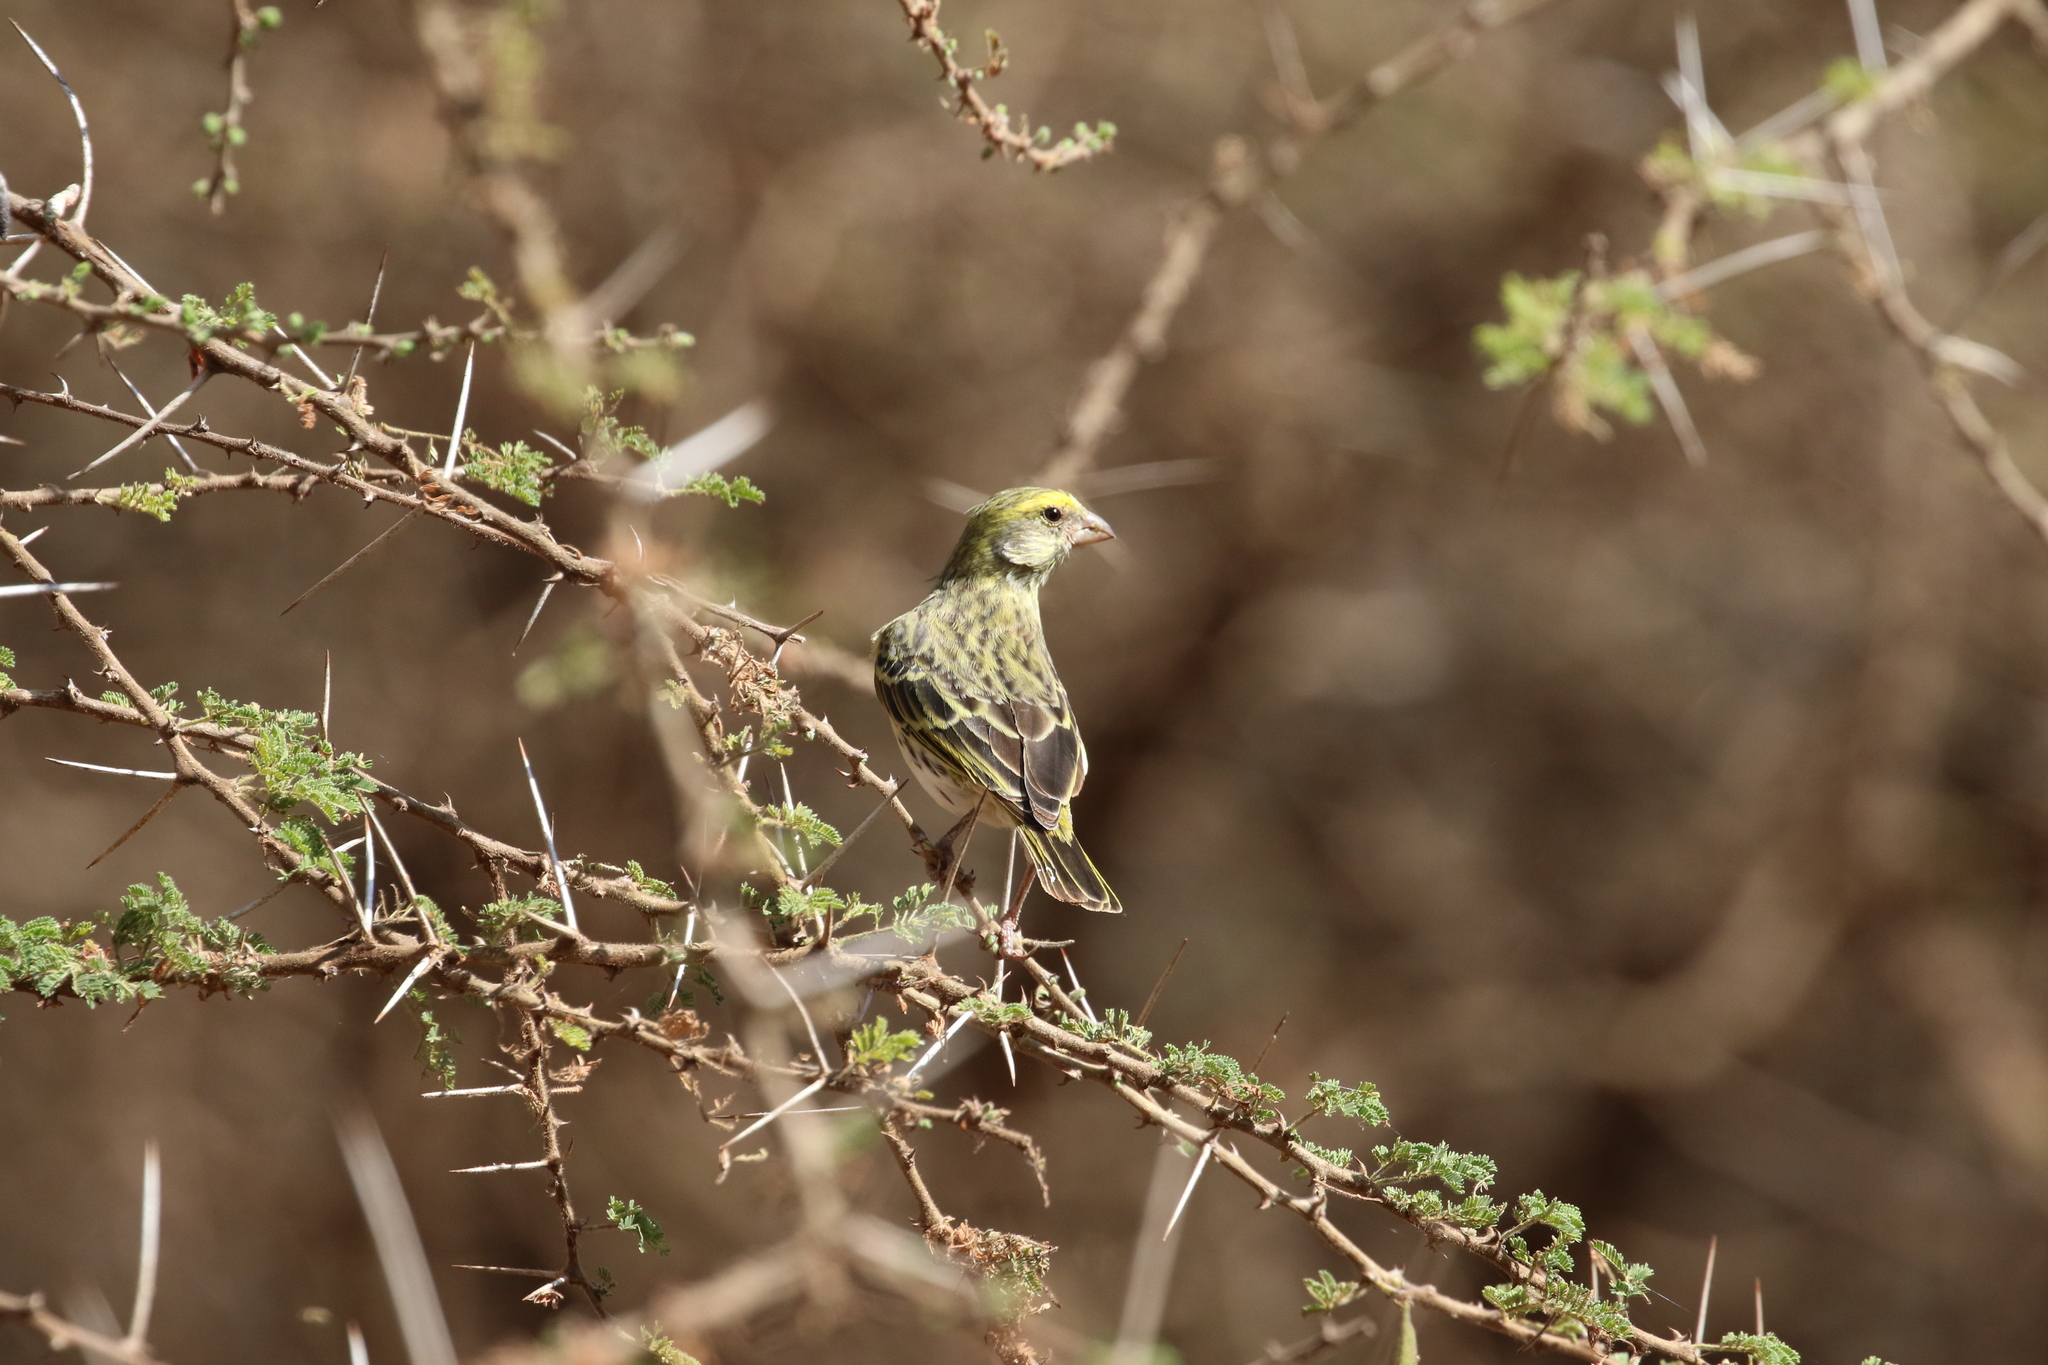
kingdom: Animalia
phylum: Chordata
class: Aves
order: Passeriformes
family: Fringillidae
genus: Crithagra
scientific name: Crithagra dorsostriata
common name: White-bellied canary
